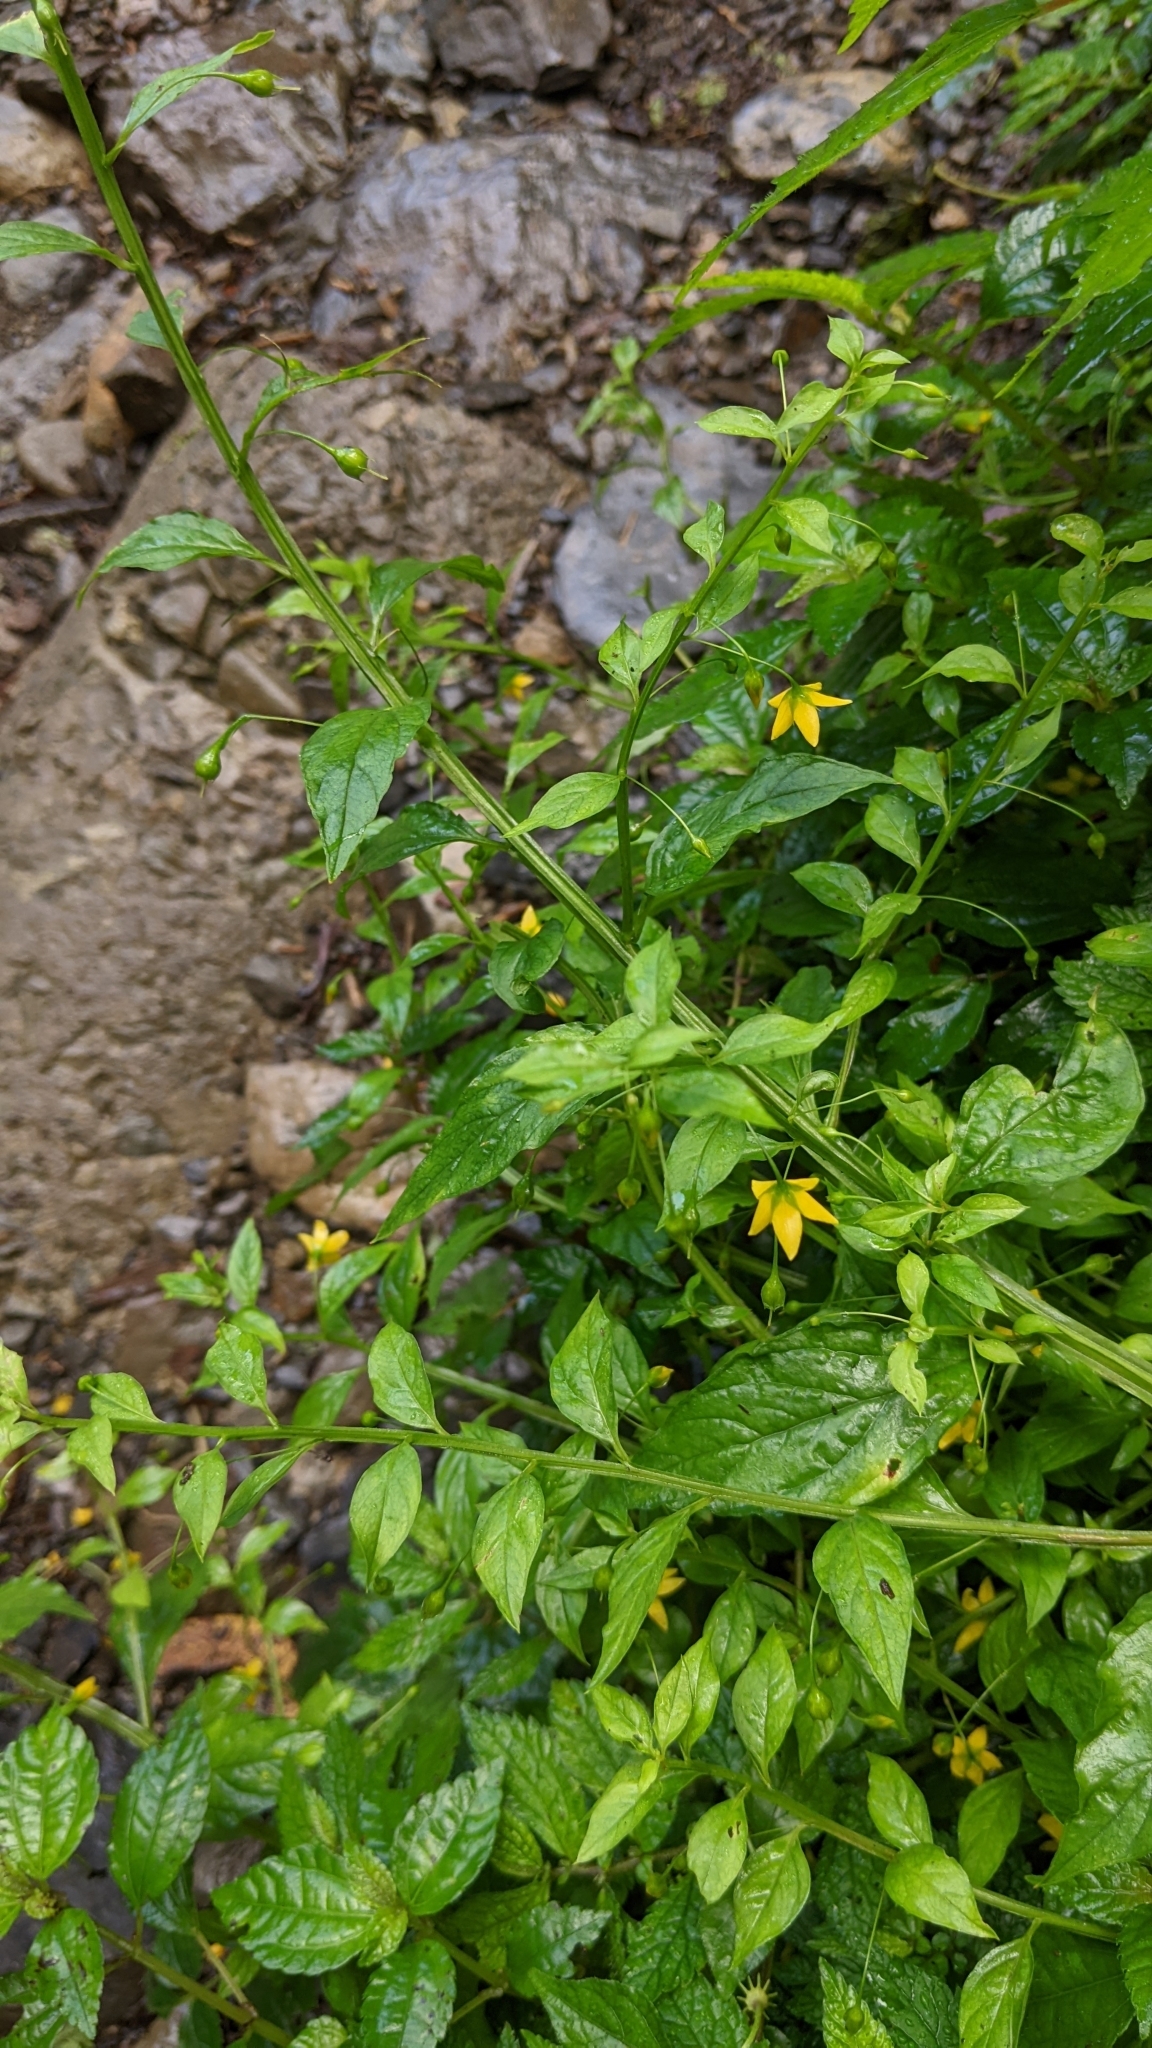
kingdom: Plantae
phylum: Tracheophyta
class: Magnoliopsida
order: Ericales
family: Primulaceae
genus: Lysimachia
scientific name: Lysimachia capillipes
